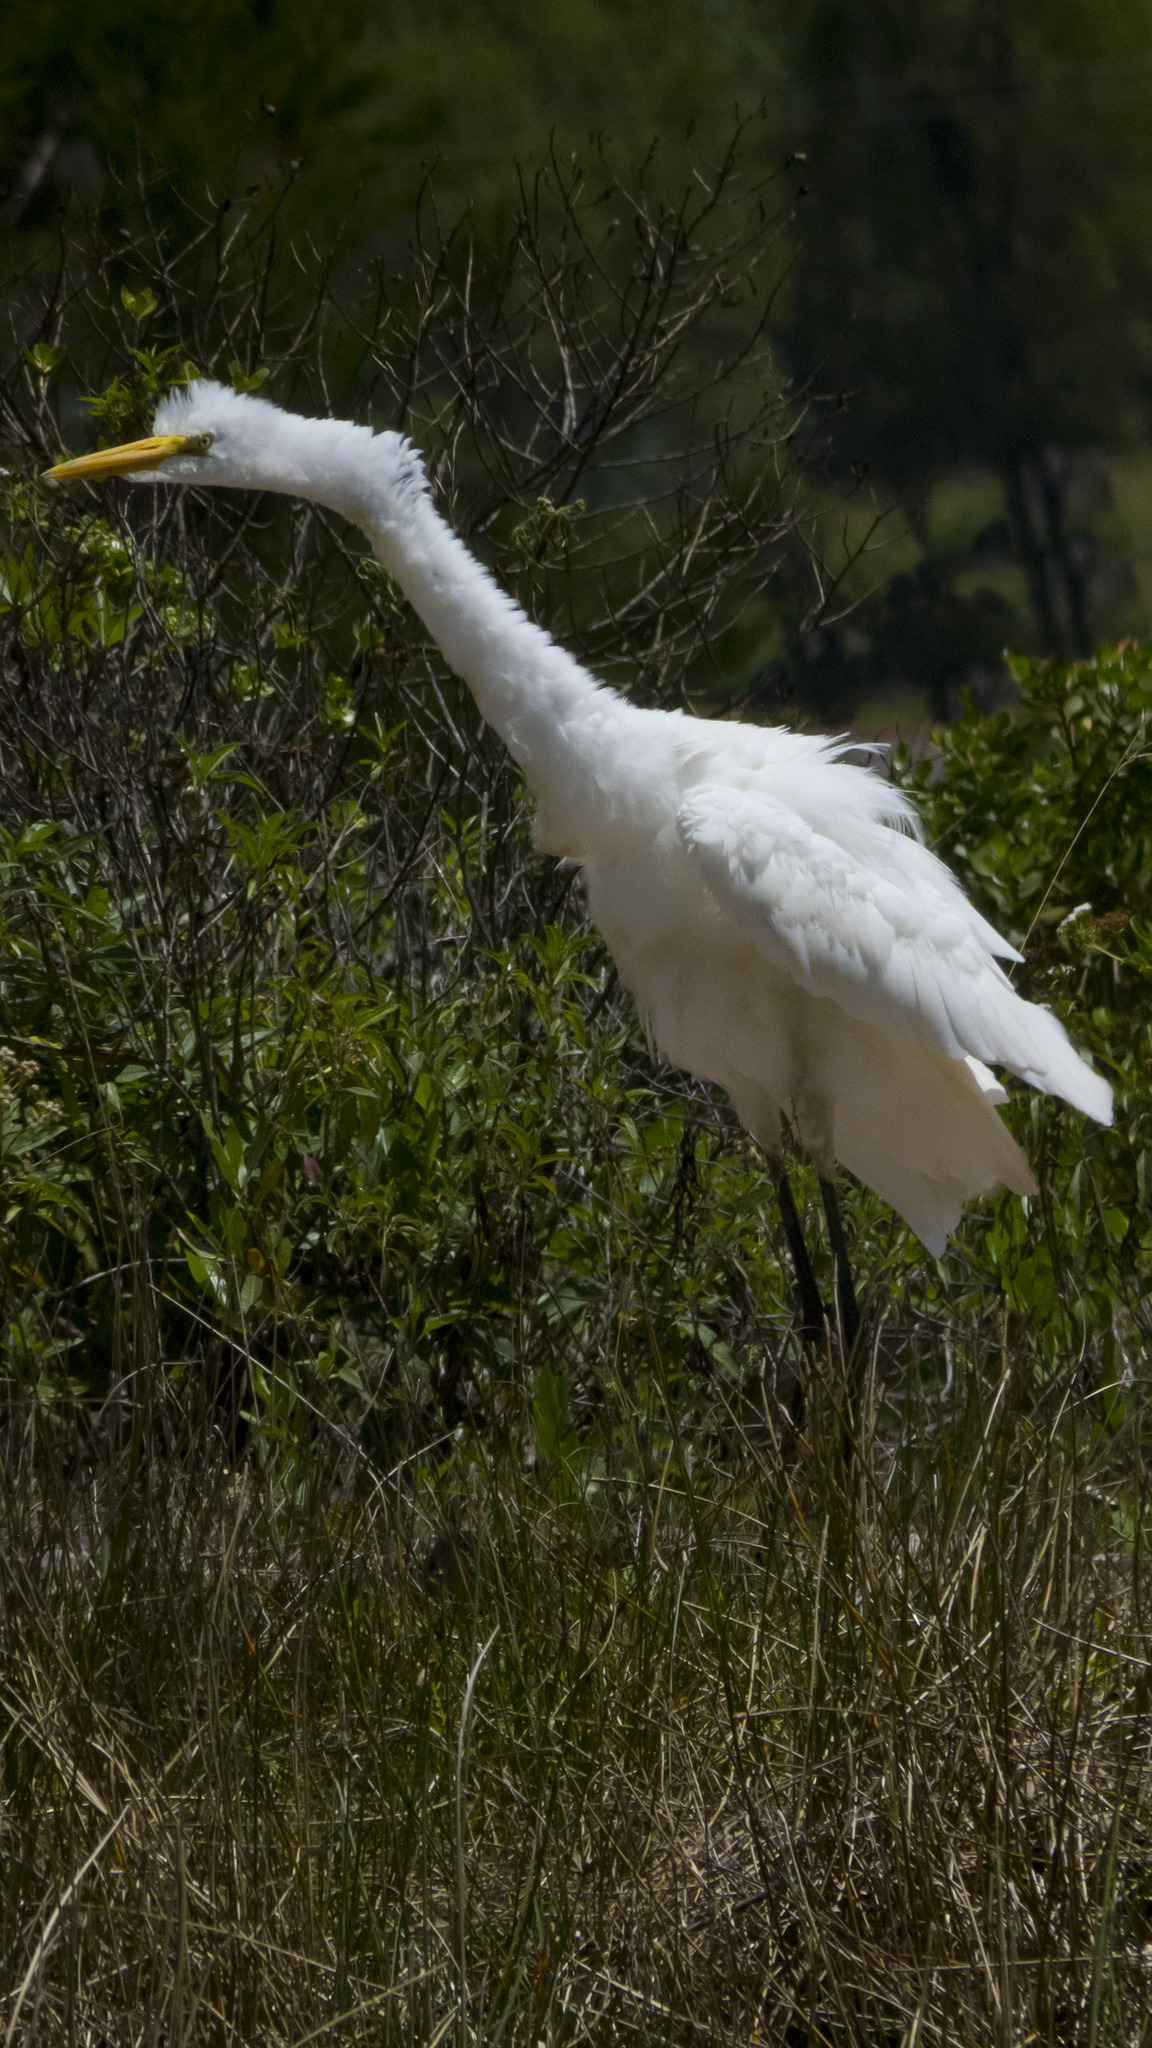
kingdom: Animalia
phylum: Chordata
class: Aves
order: Pelecaniformes
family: Ardeidae
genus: Ardea
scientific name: Ardea alba
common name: Great egret
